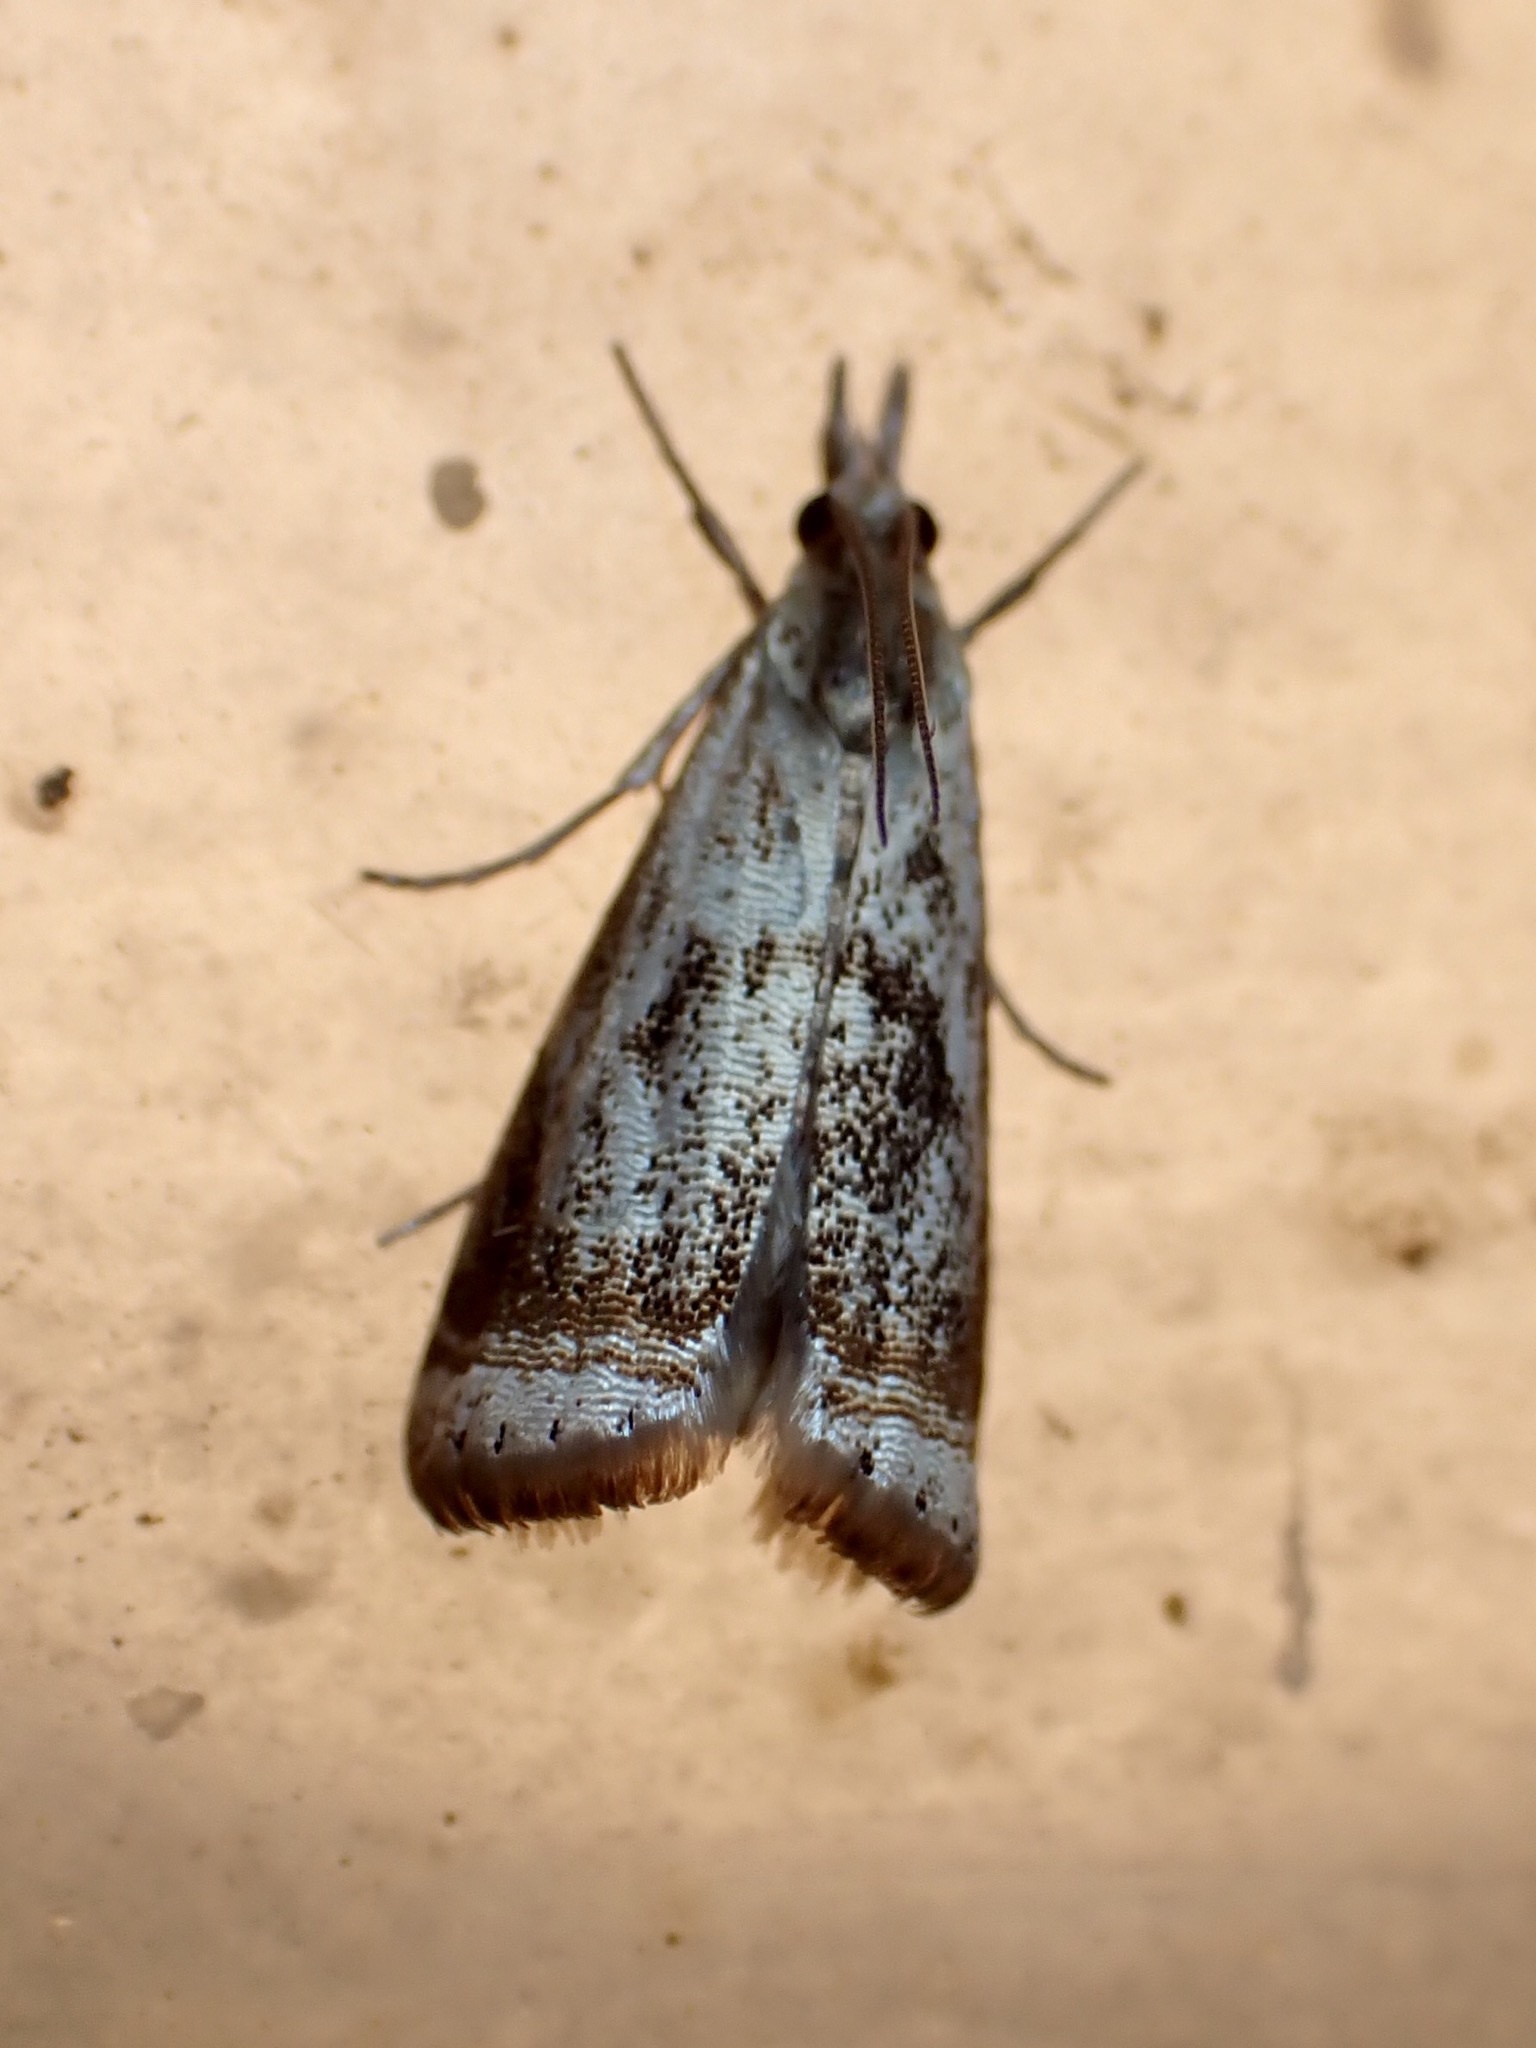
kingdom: Animalia
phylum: Arthropoda
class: Insecta
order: Lepidoptera
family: Crambidae
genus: Microcrambus
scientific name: Microcrambus elegans
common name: Elegant grass-veneer
